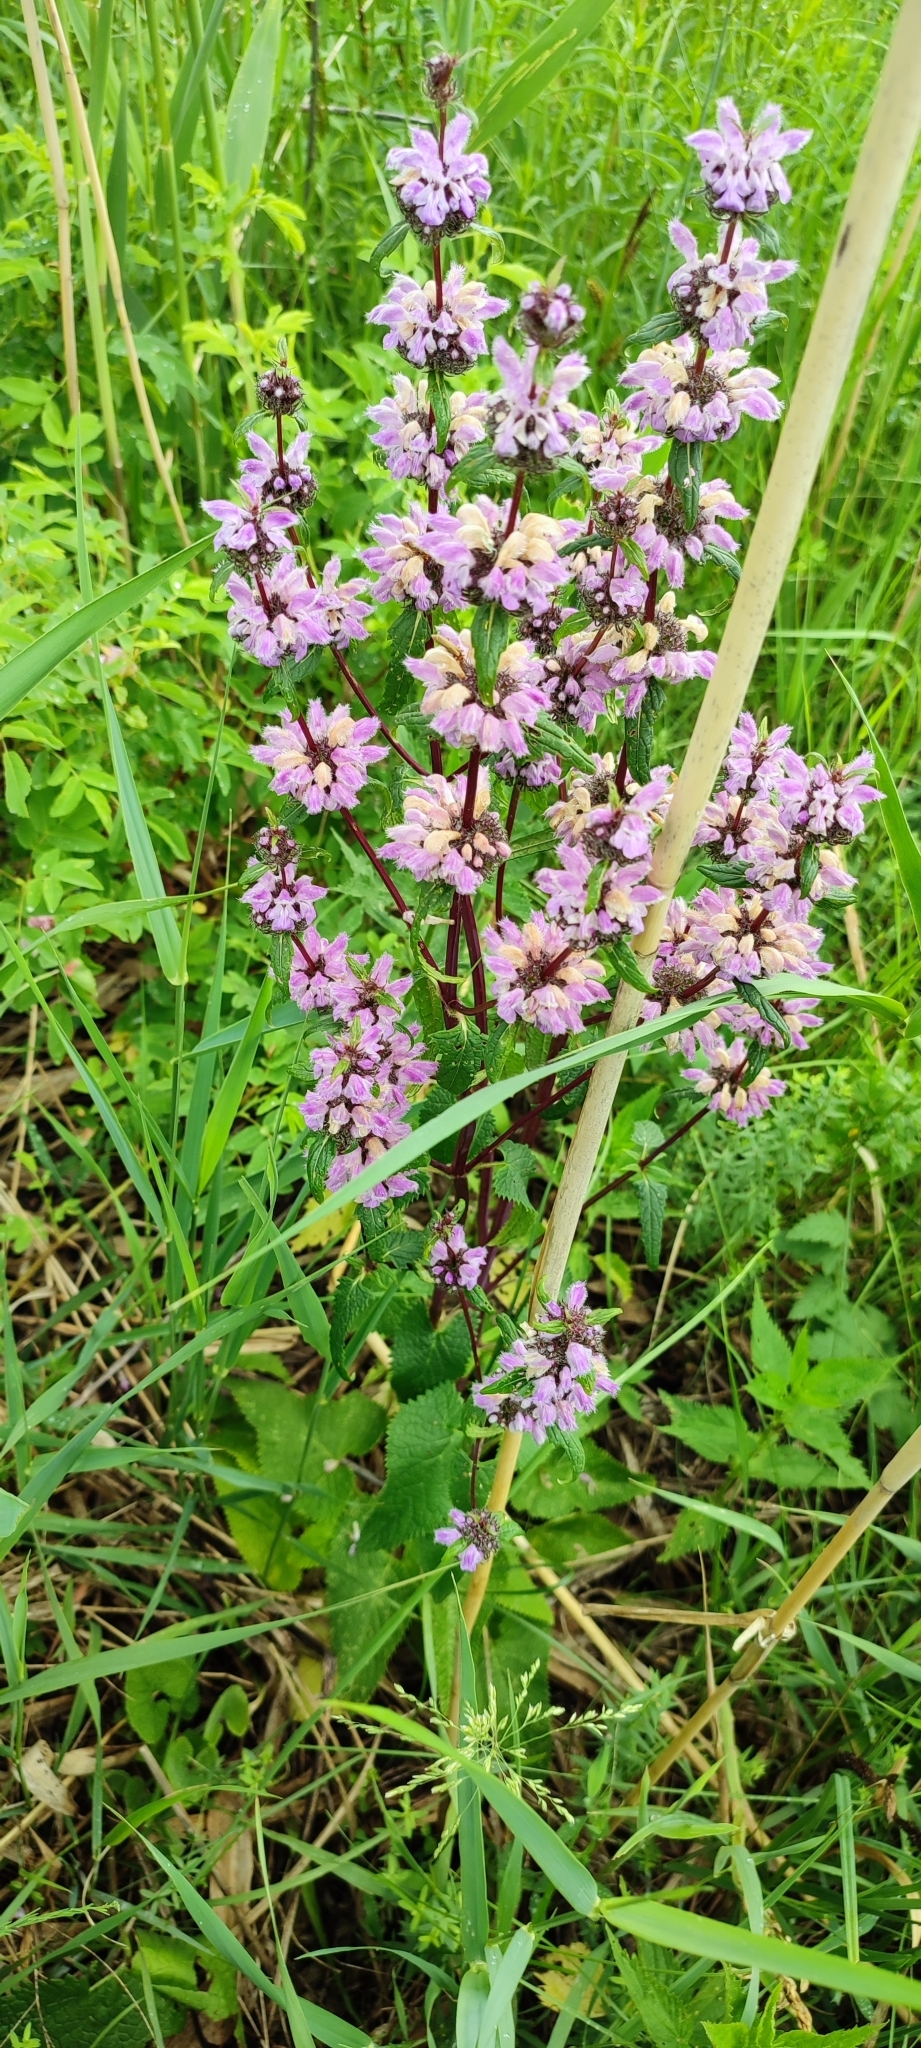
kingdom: Plantae
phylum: Tracheophyta
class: Magnoliopsida
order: Lamiales
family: Lamiaceae
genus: Phlomoides
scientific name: Phlomoides tuberosa
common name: Tuberous jerusalem sage
